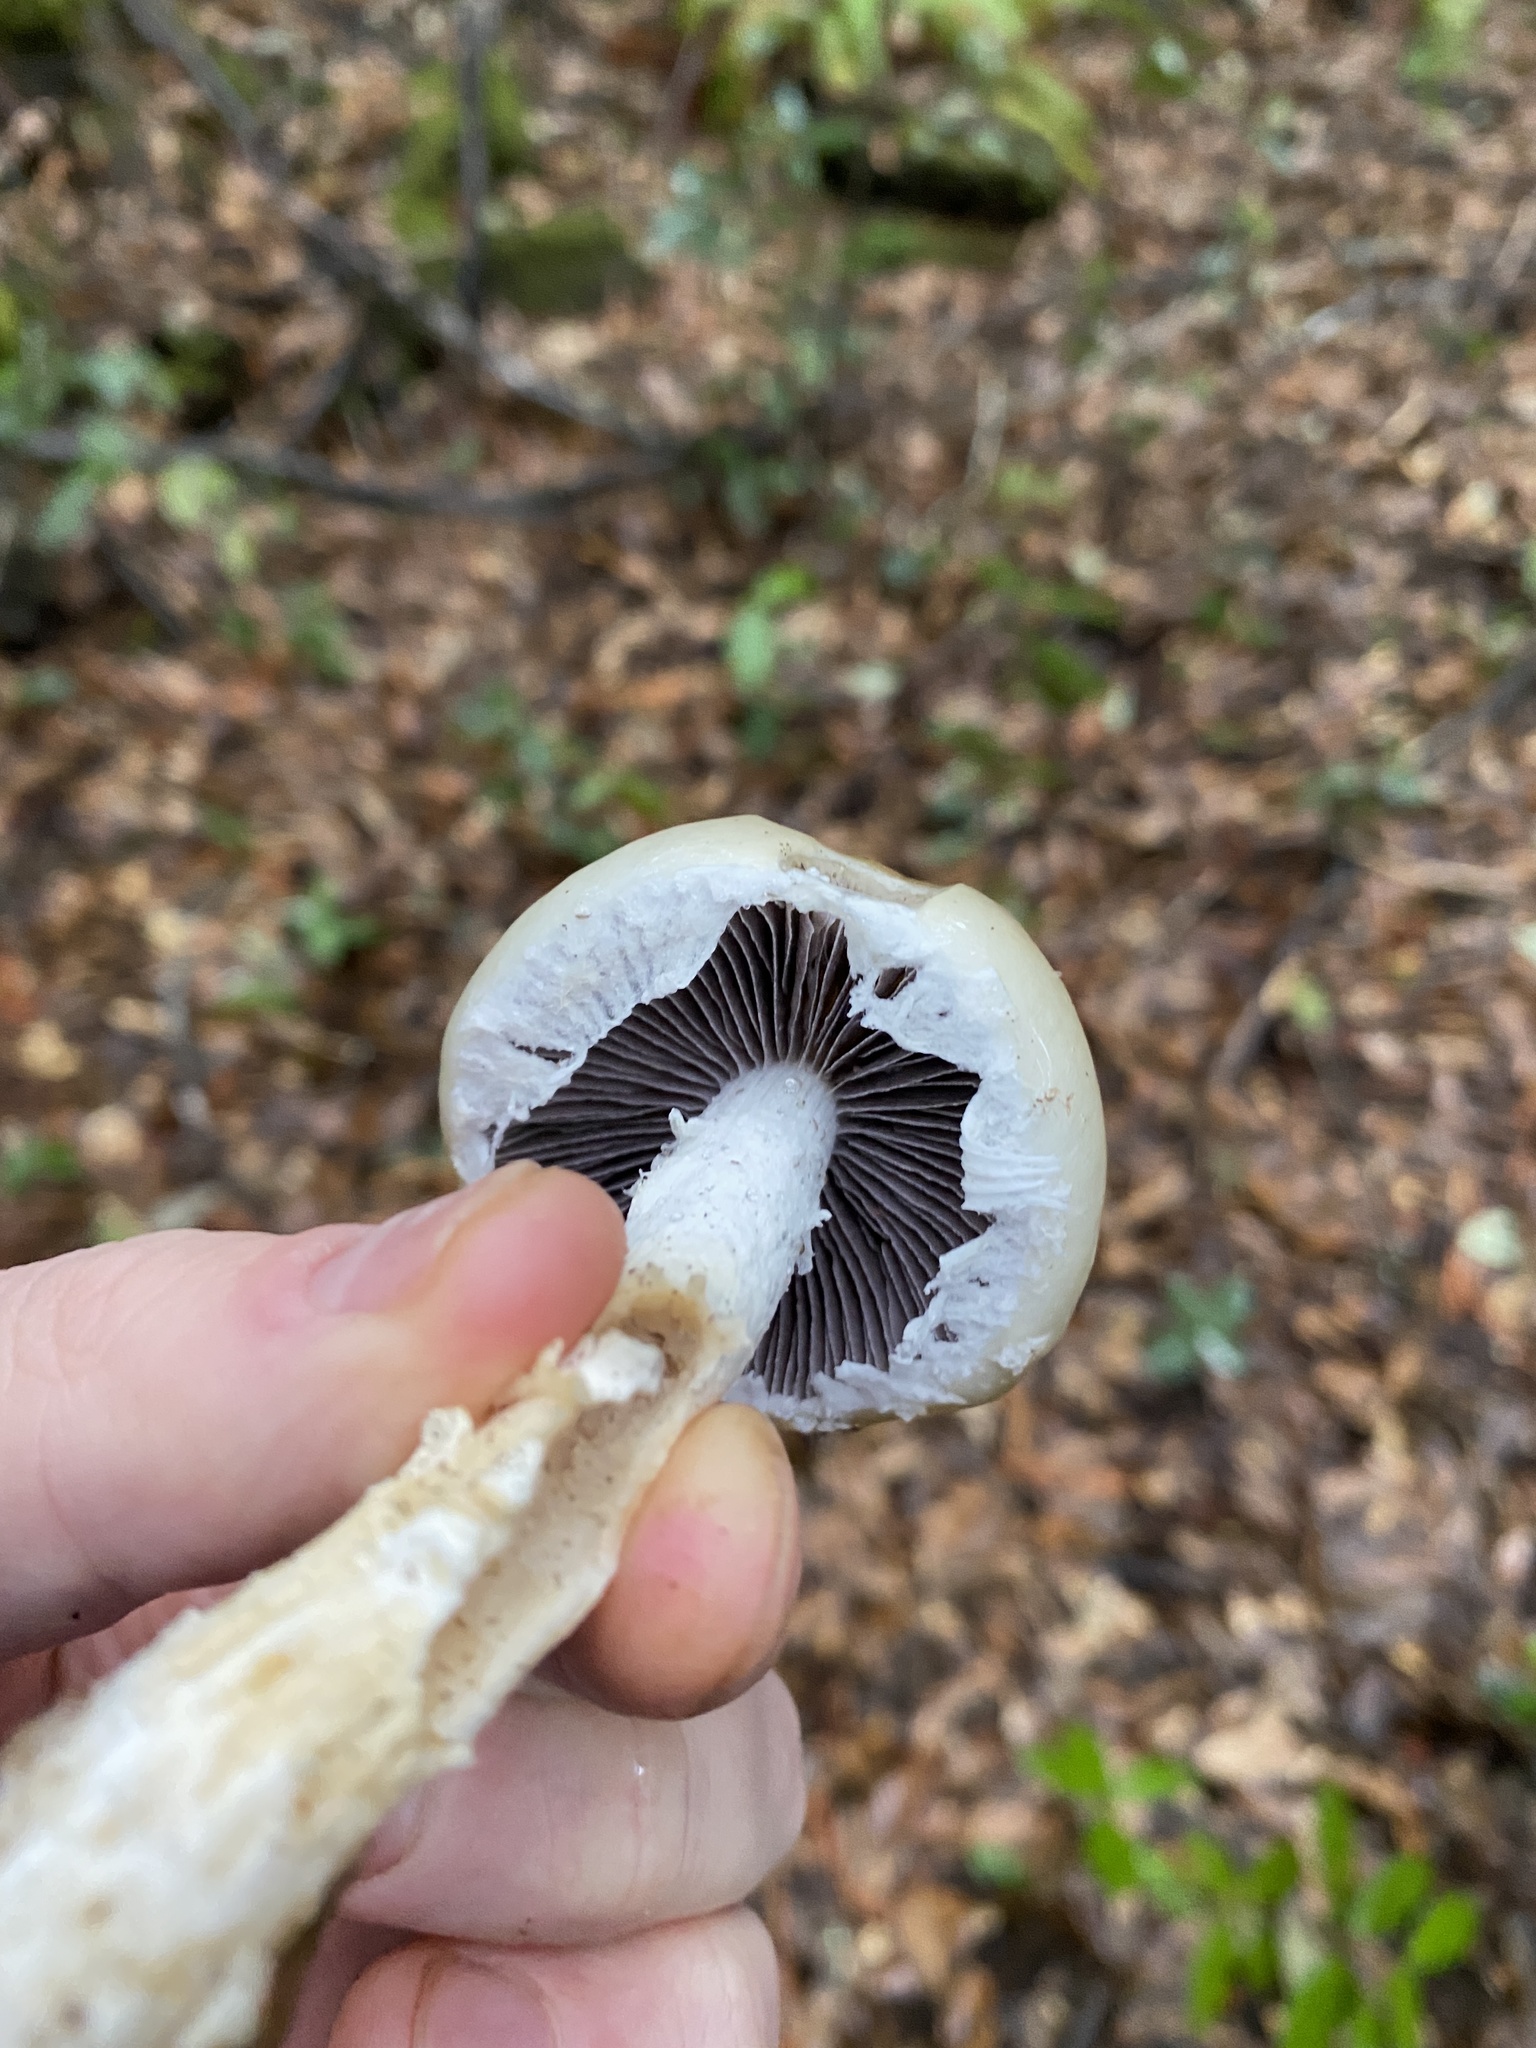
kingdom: Fungi
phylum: Basidiomycota
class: Agaricomycetes
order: Agaricales
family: Strophariaceae
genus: Stropharia
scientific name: Stropharia ambigua
